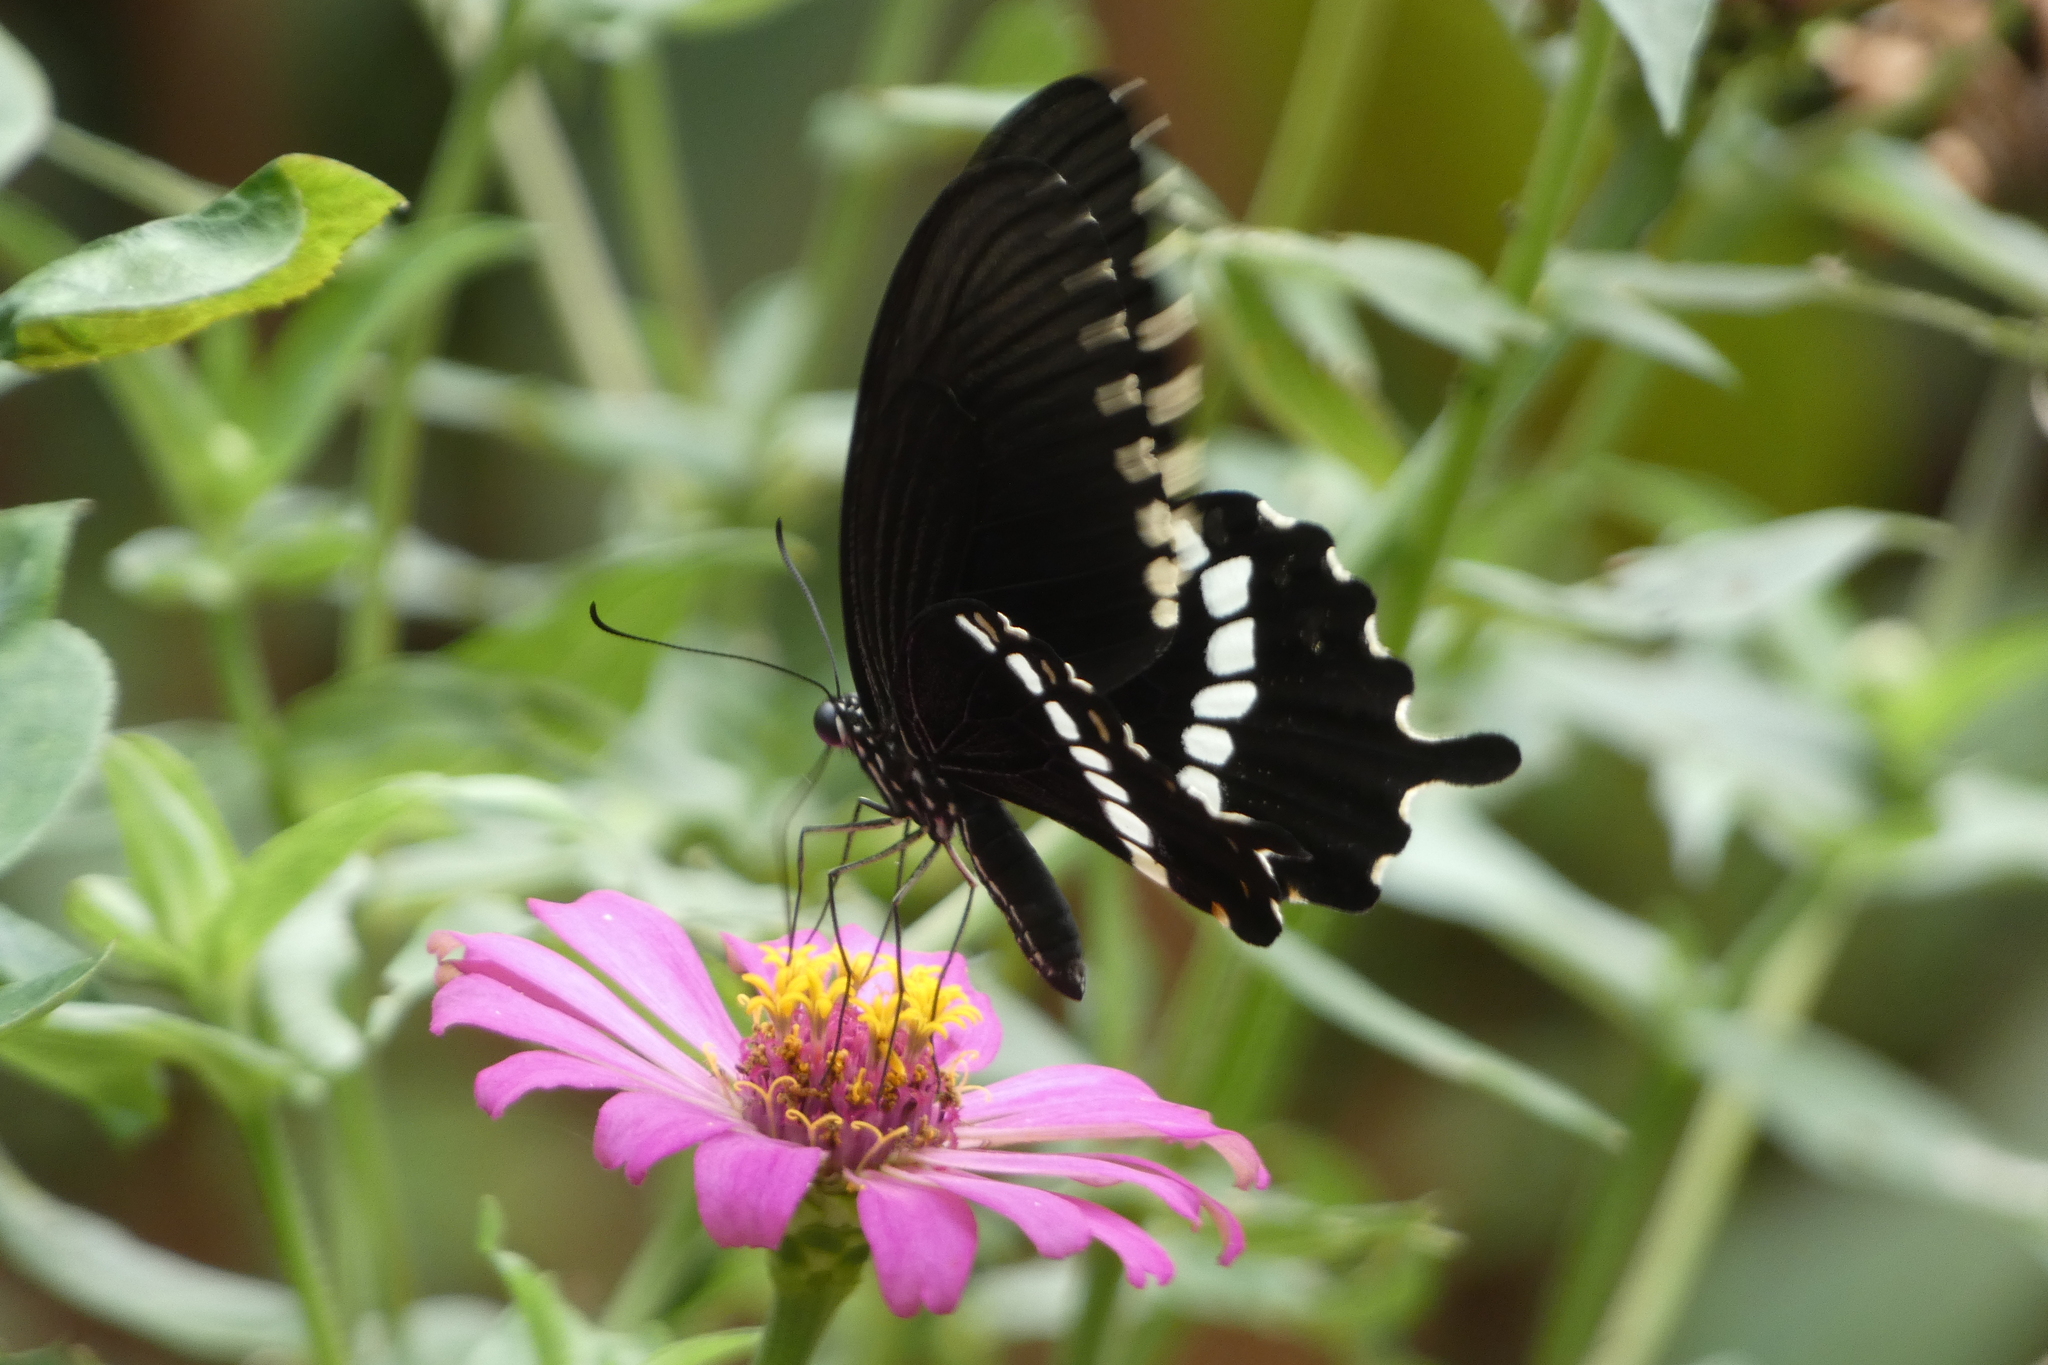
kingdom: Animalia
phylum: Arthropoda
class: Insecta
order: Lepidoptera
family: Papilionidae
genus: Papilio
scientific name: Papilio polytes
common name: Common mormon
